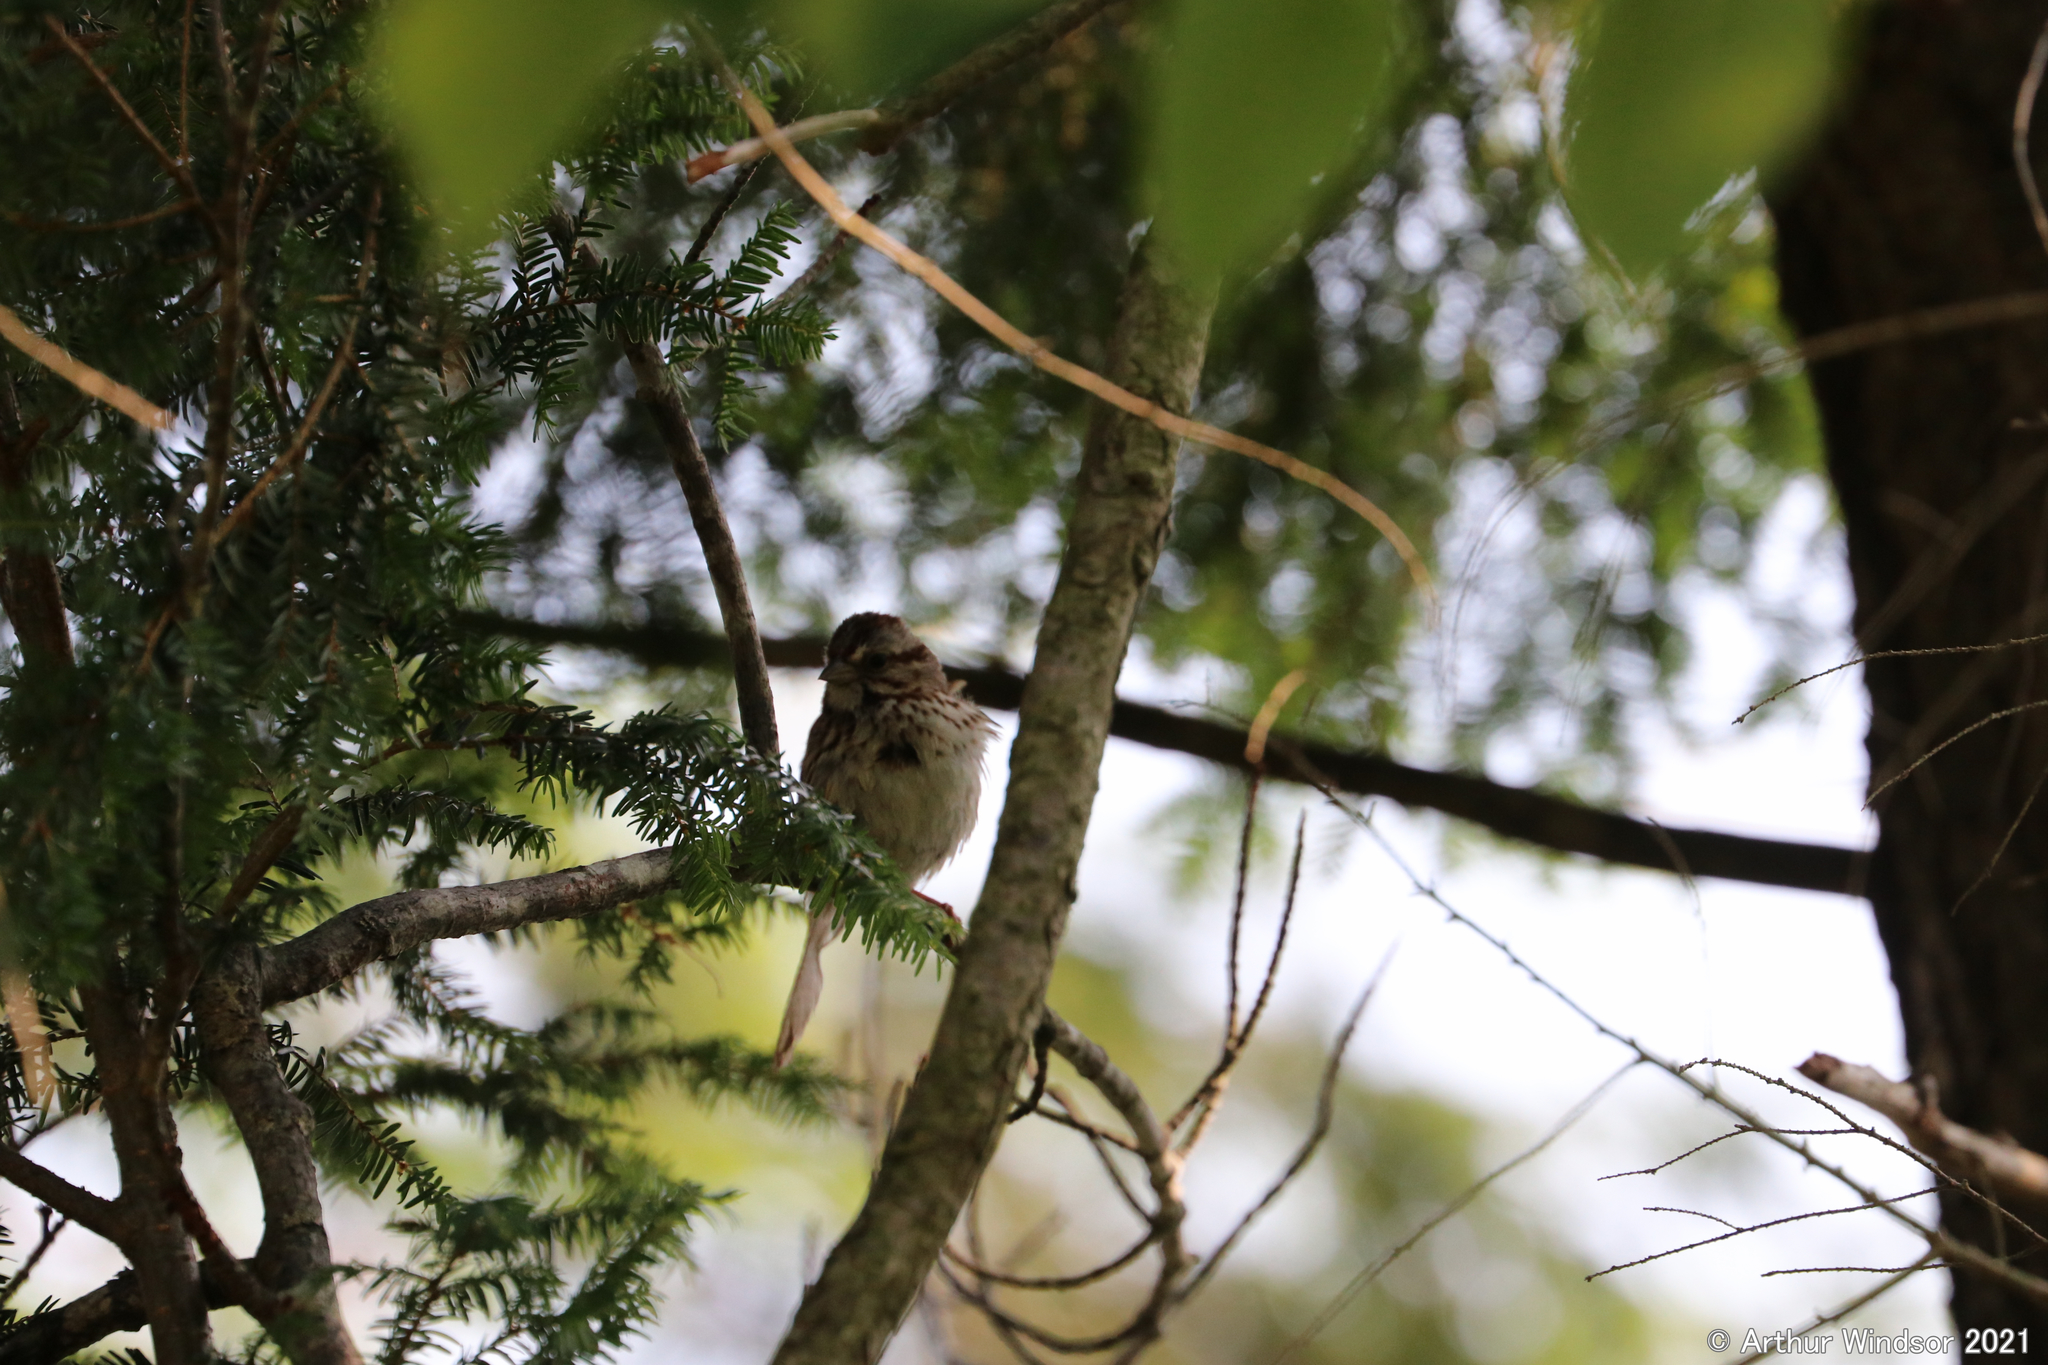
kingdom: Animalia
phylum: Chordata
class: Aves
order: Passeriformes
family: Passerellidae
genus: Melospiza
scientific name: Melospiza melodia
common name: Song sparrow
